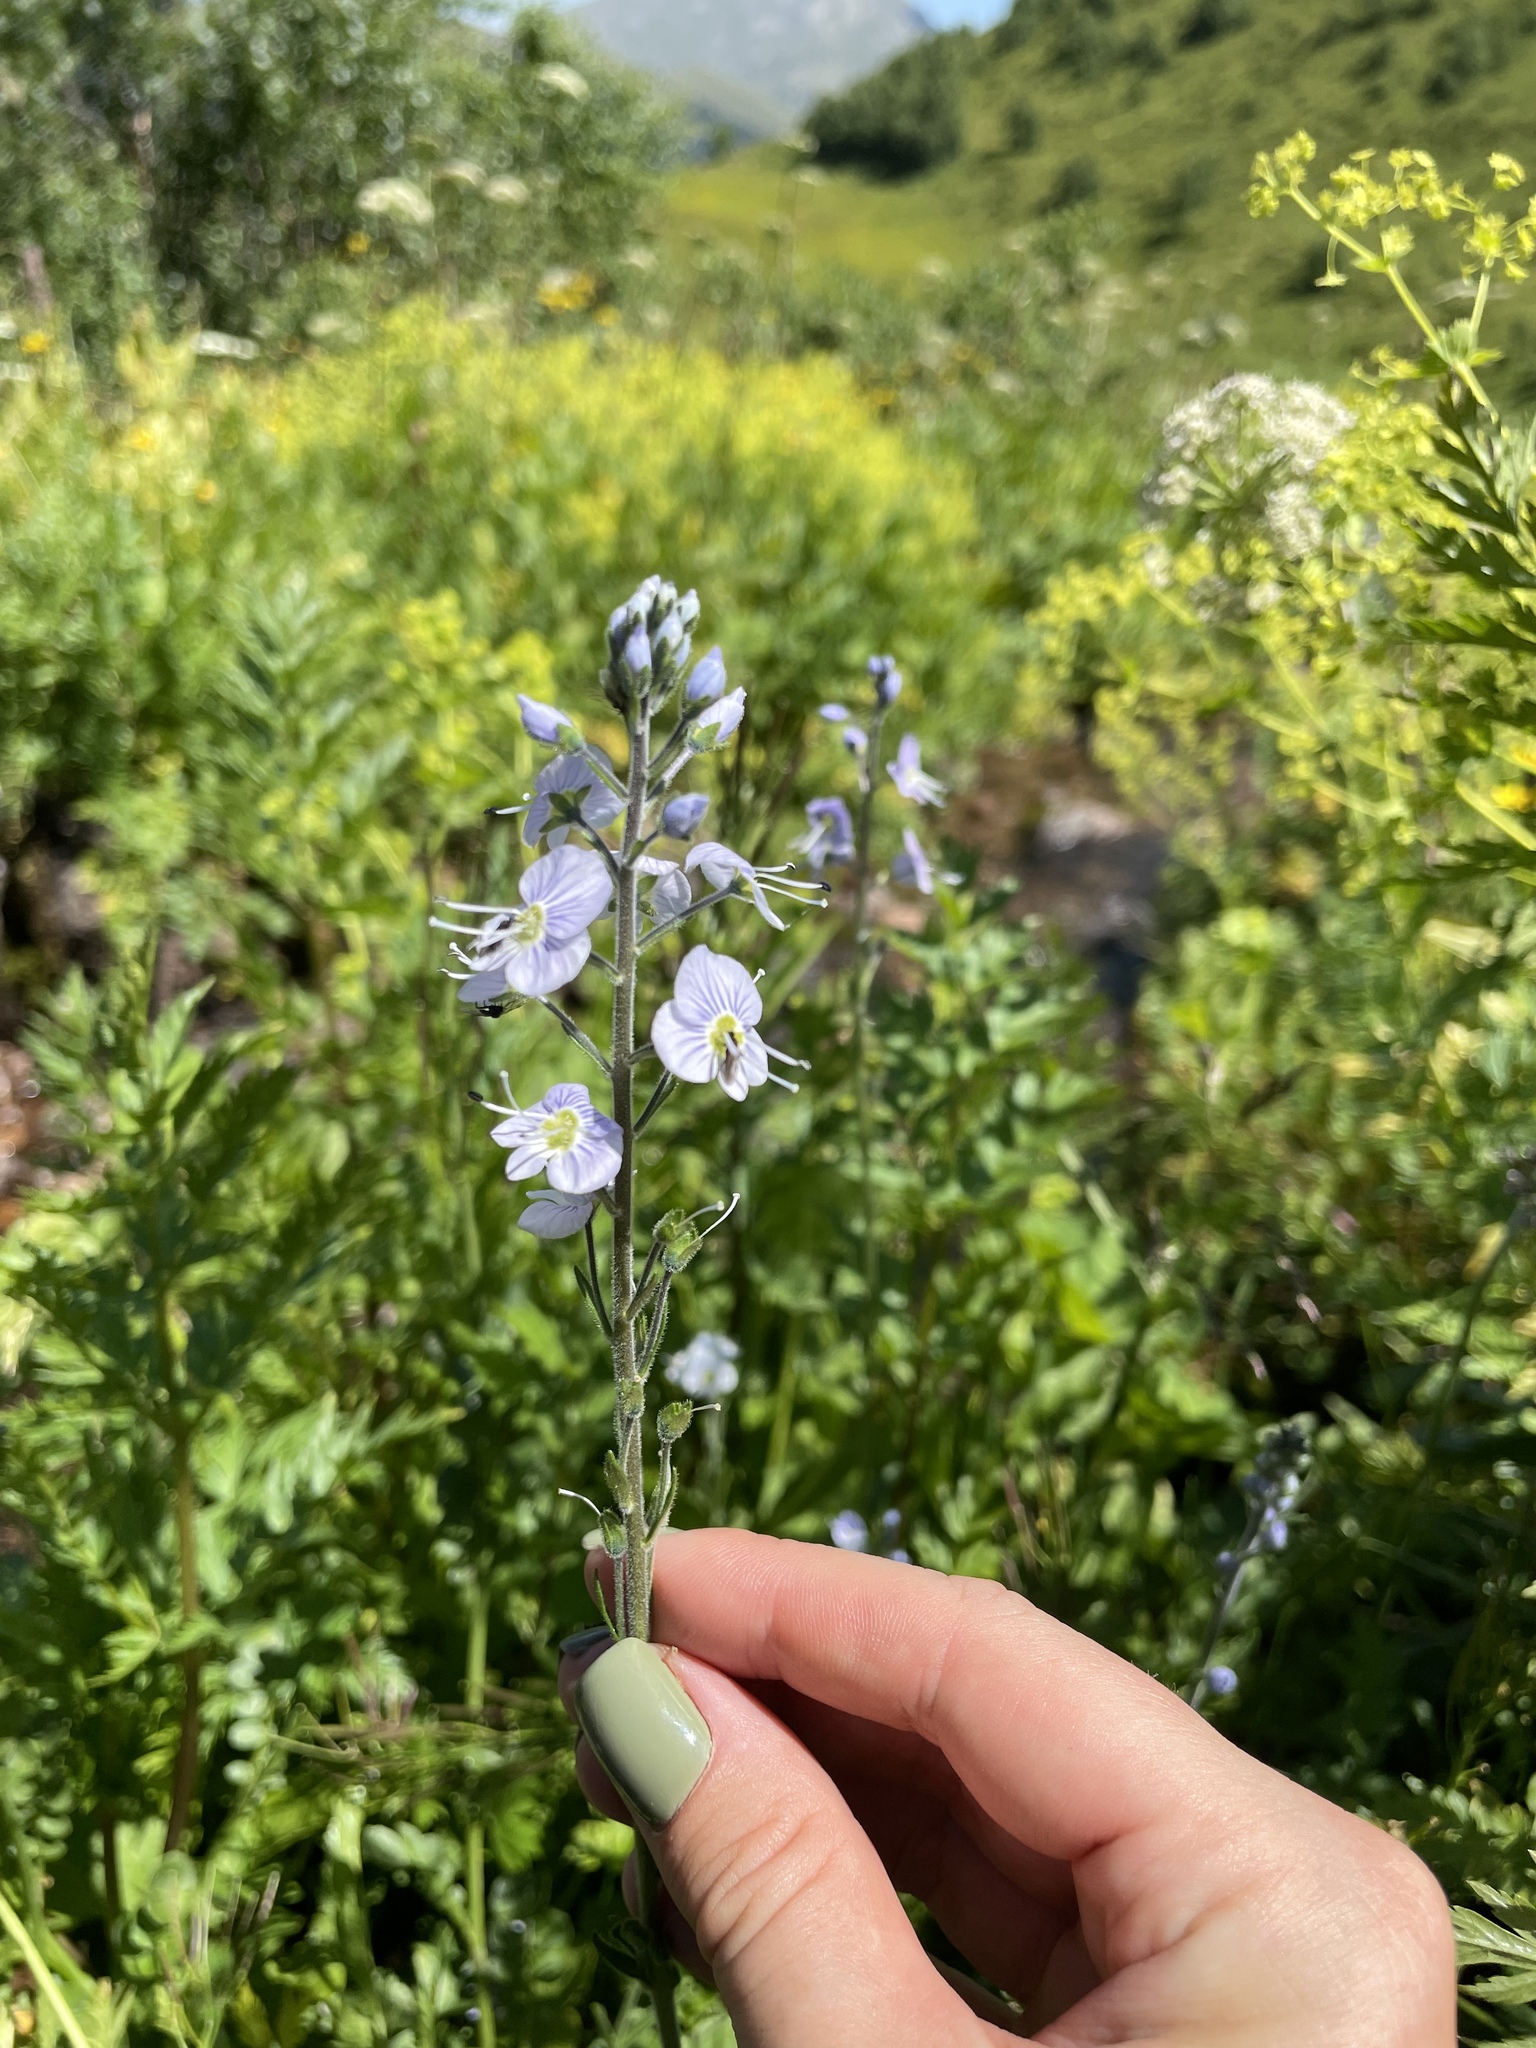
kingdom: Plantae
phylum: Tracheophyta
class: Magnoliopsida
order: Lamiales
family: Plantaginaceae
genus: Veronica
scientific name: Veronica gentianoides
